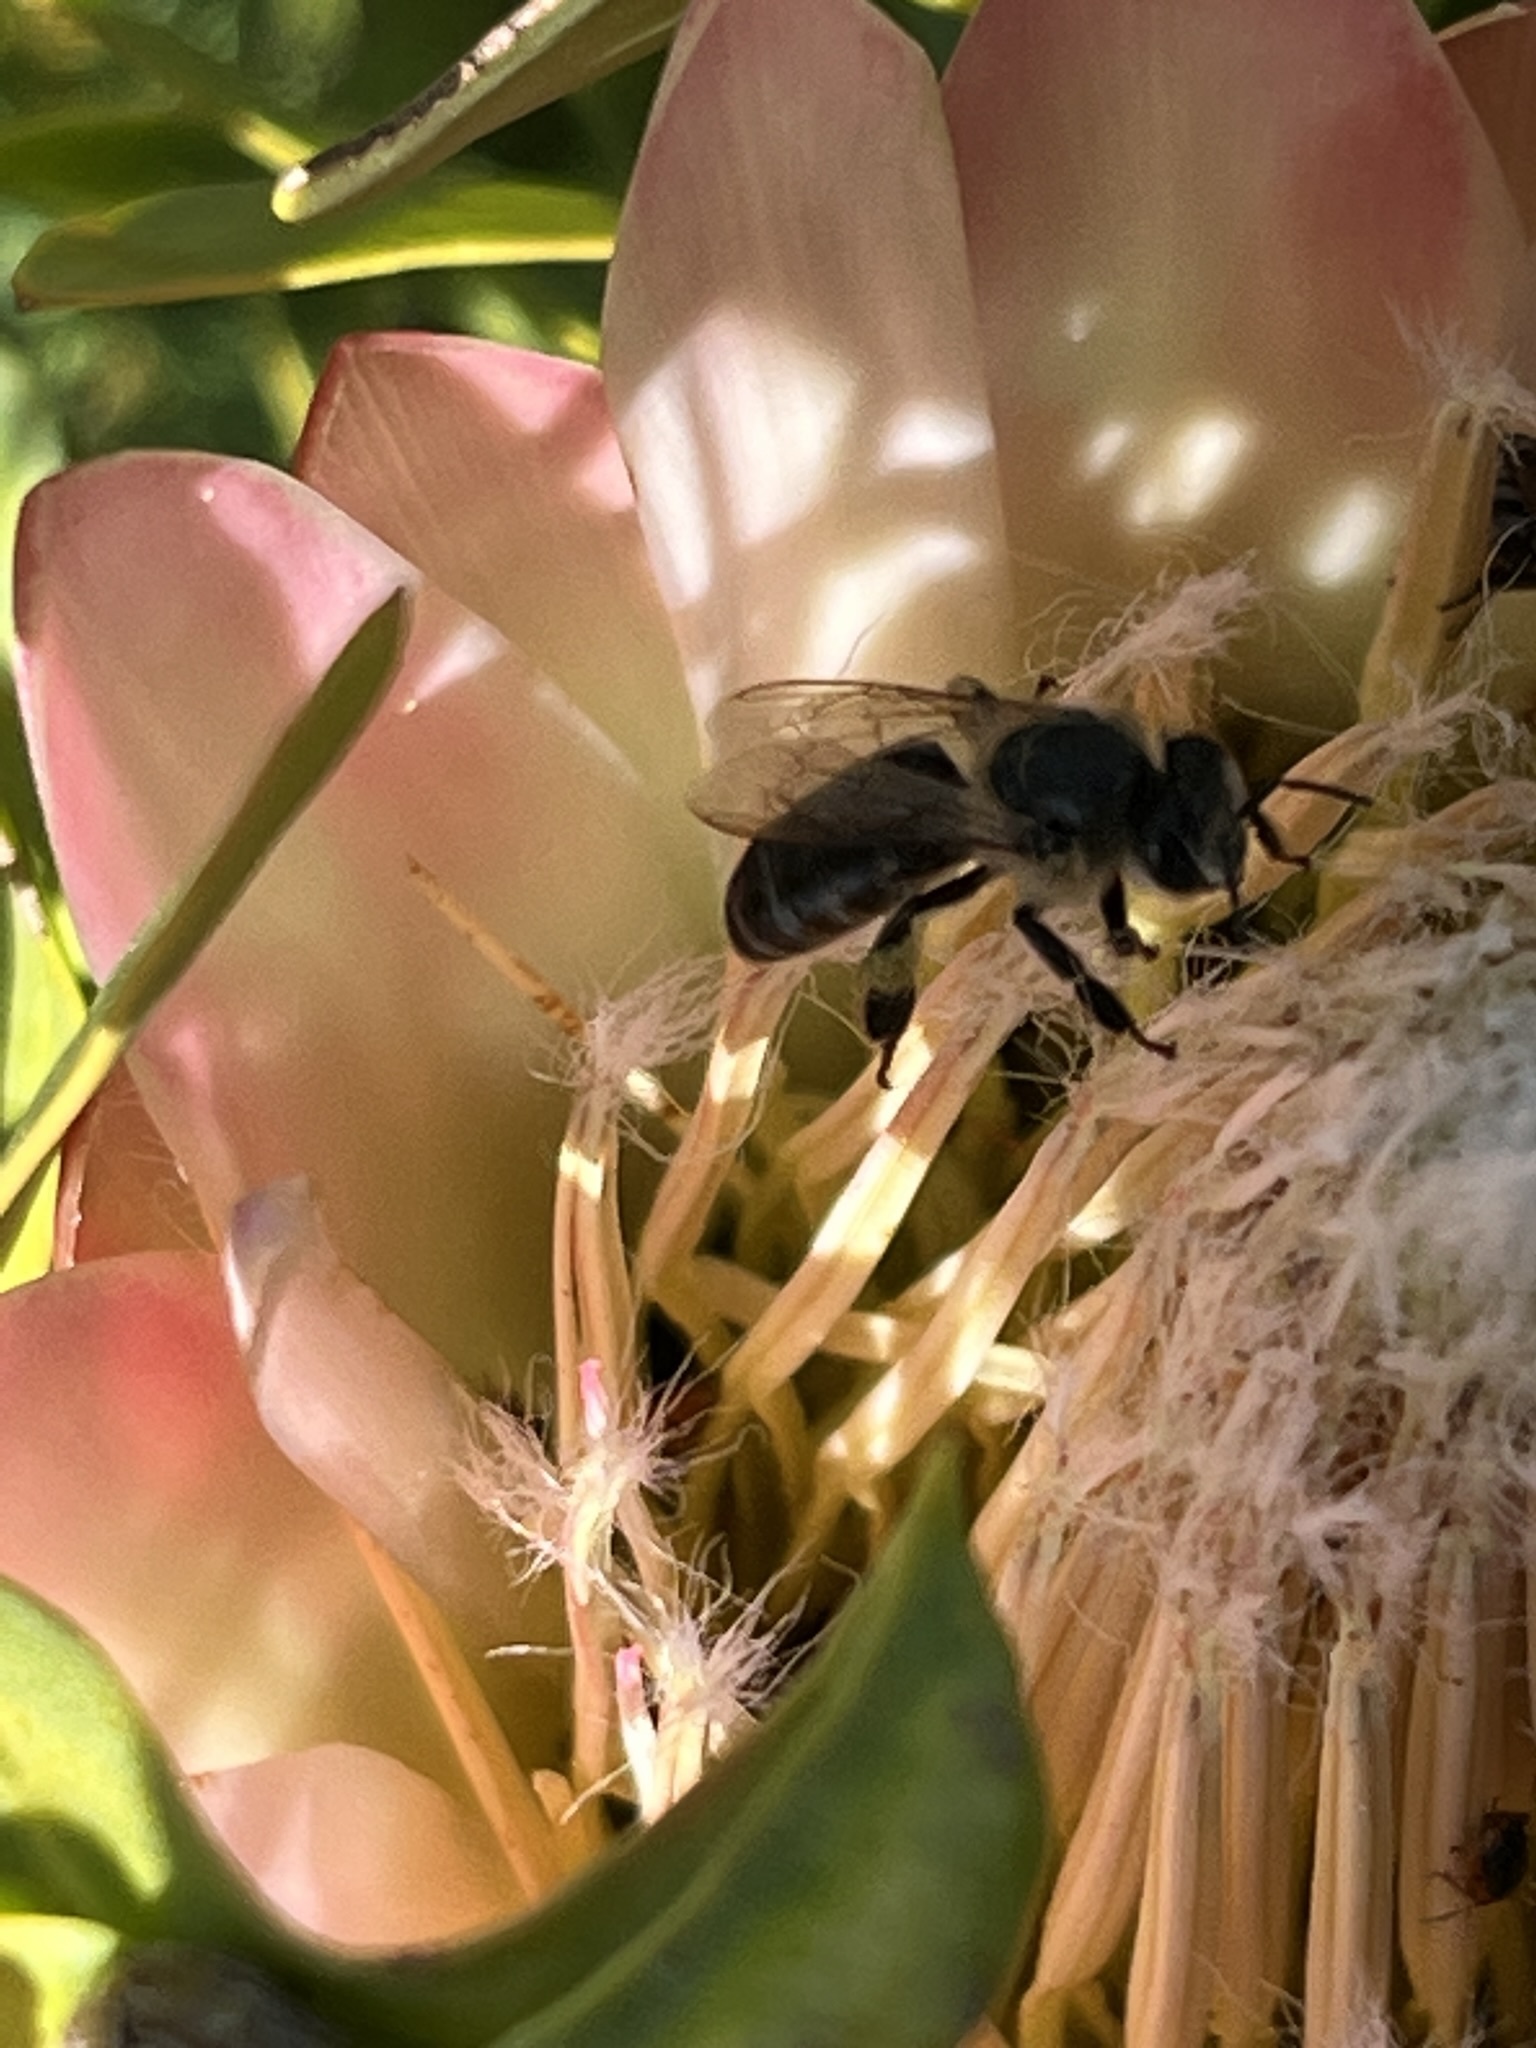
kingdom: Animalia
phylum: Arthropoda
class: Insecta
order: Hymenoptera
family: Apidae
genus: Apis
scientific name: Apis mellifera
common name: Honey bee
